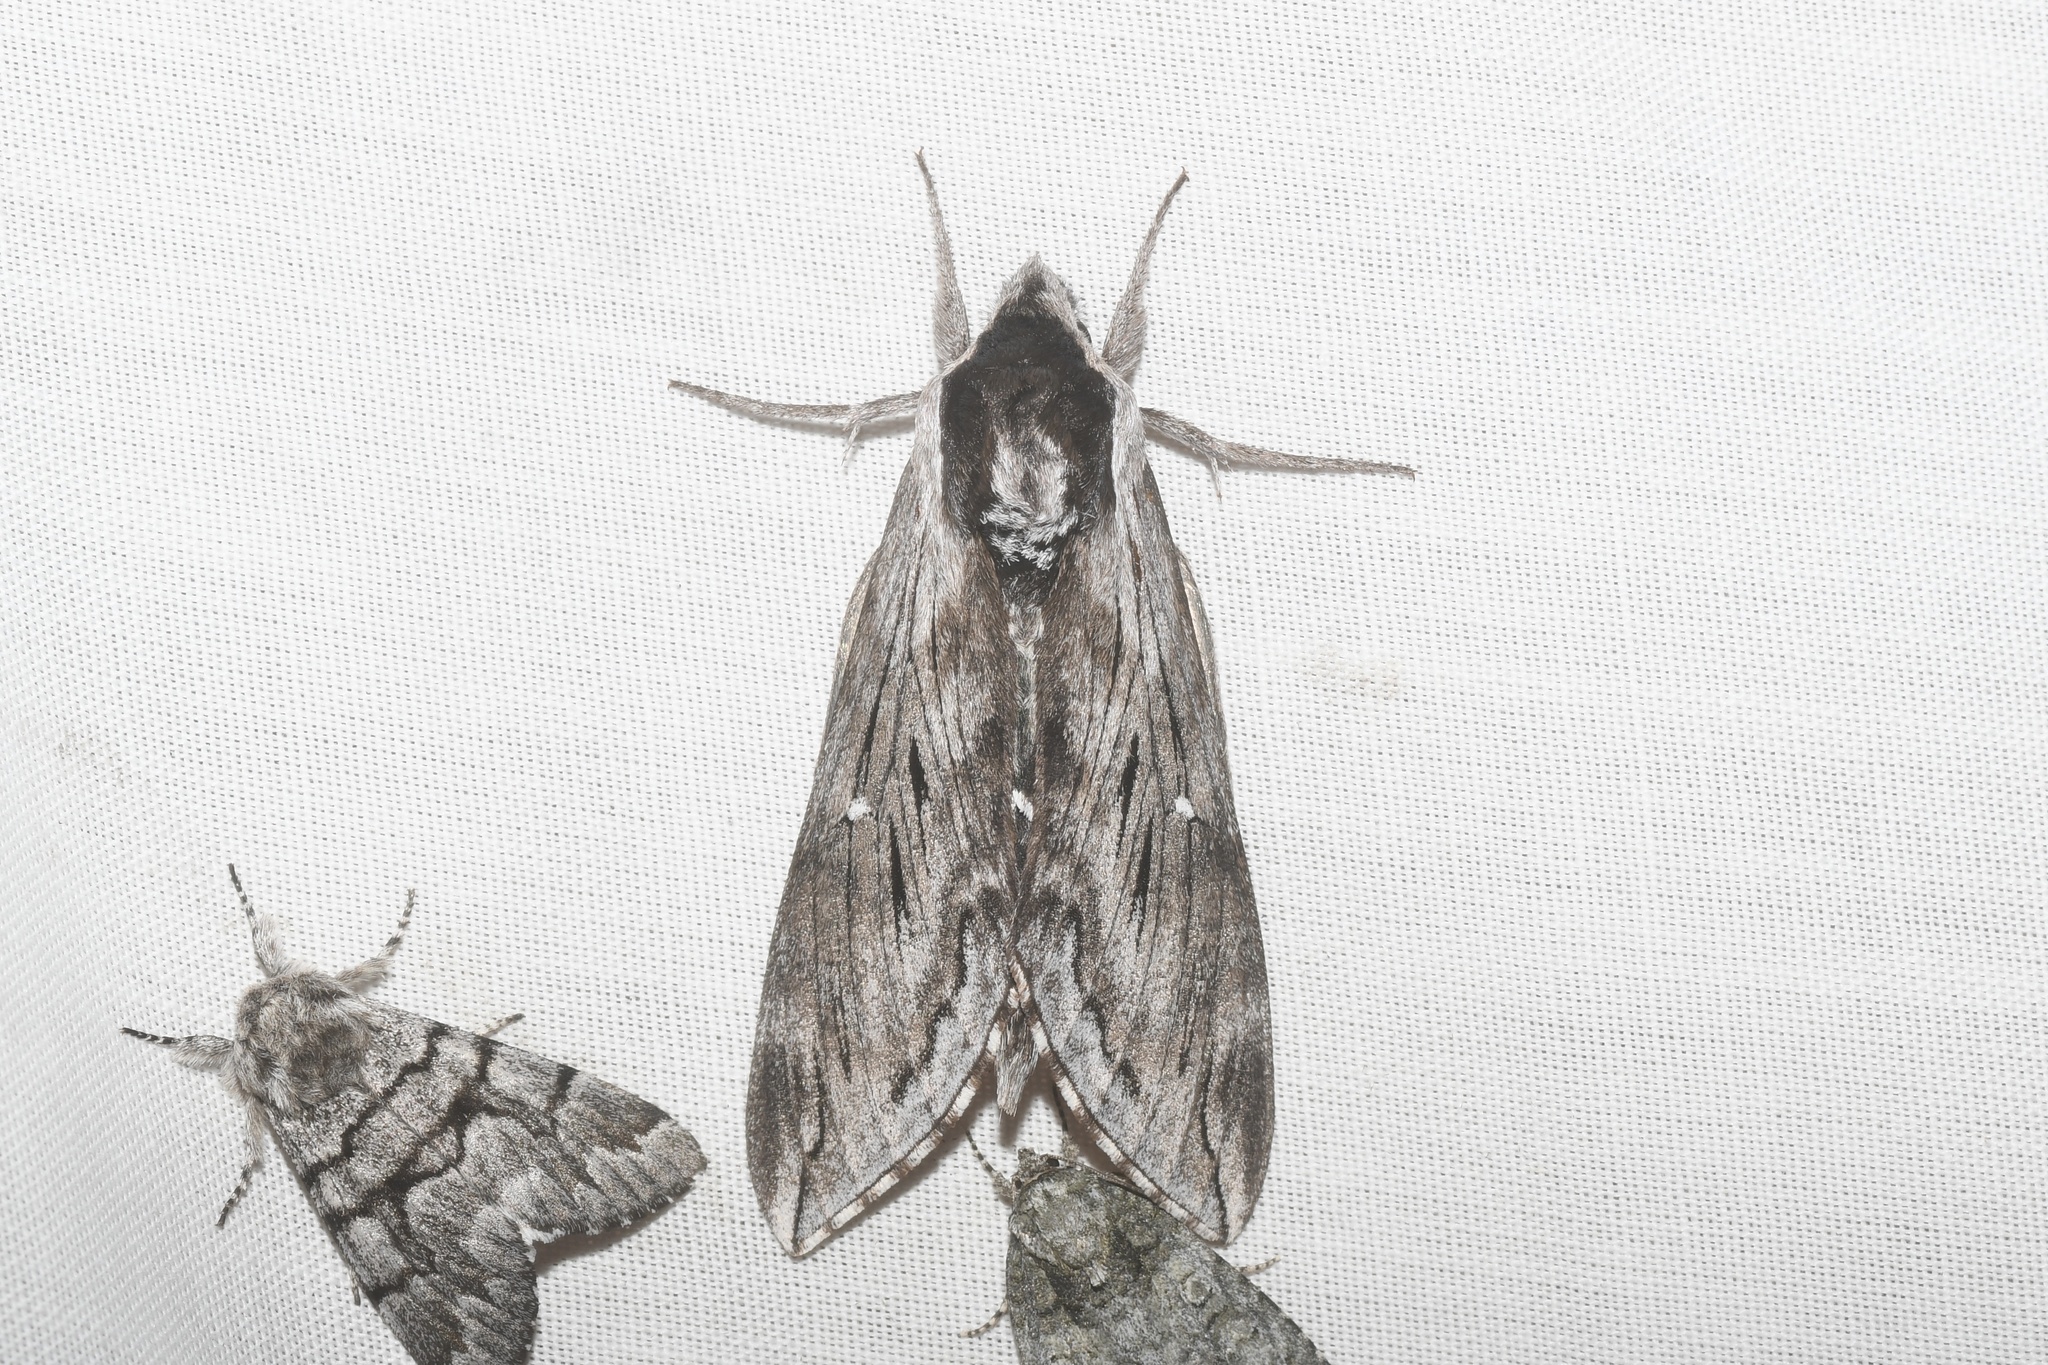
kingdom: Animalia
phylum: Arthropoda
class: Insecta
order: Lepidoptera
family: Sphingidae
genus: Sphinx
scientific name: Sphinx poecila
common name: Northern apple sphinx
